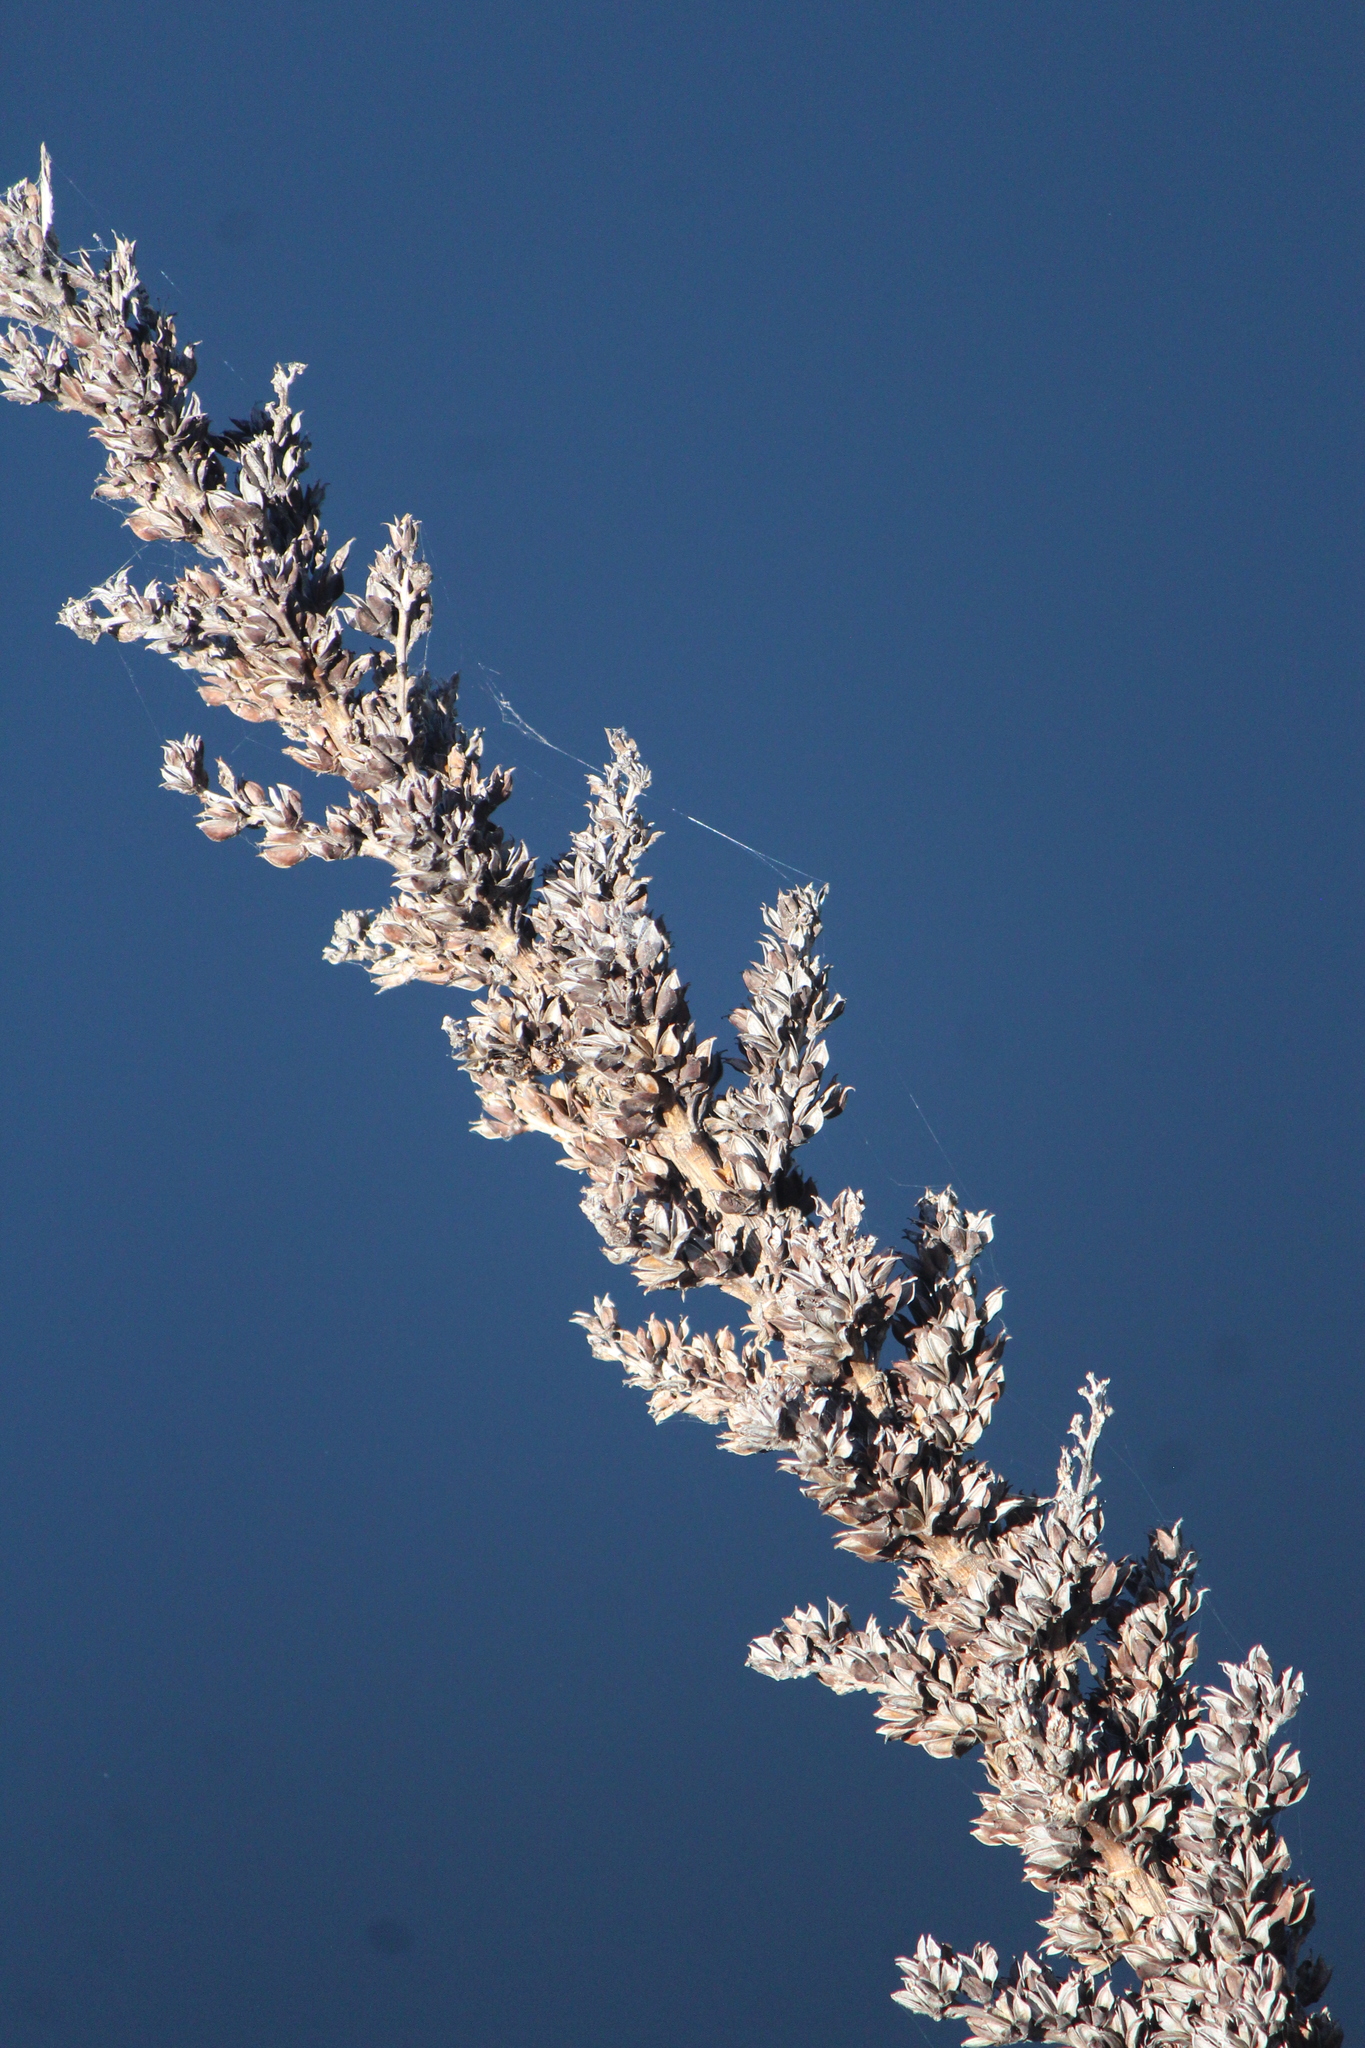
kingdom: Plantae
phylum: Tracheophyta
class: Liliopsida
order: Poales
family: Bromeliaceae
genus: Hechtia
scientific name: Hechtia podantha
